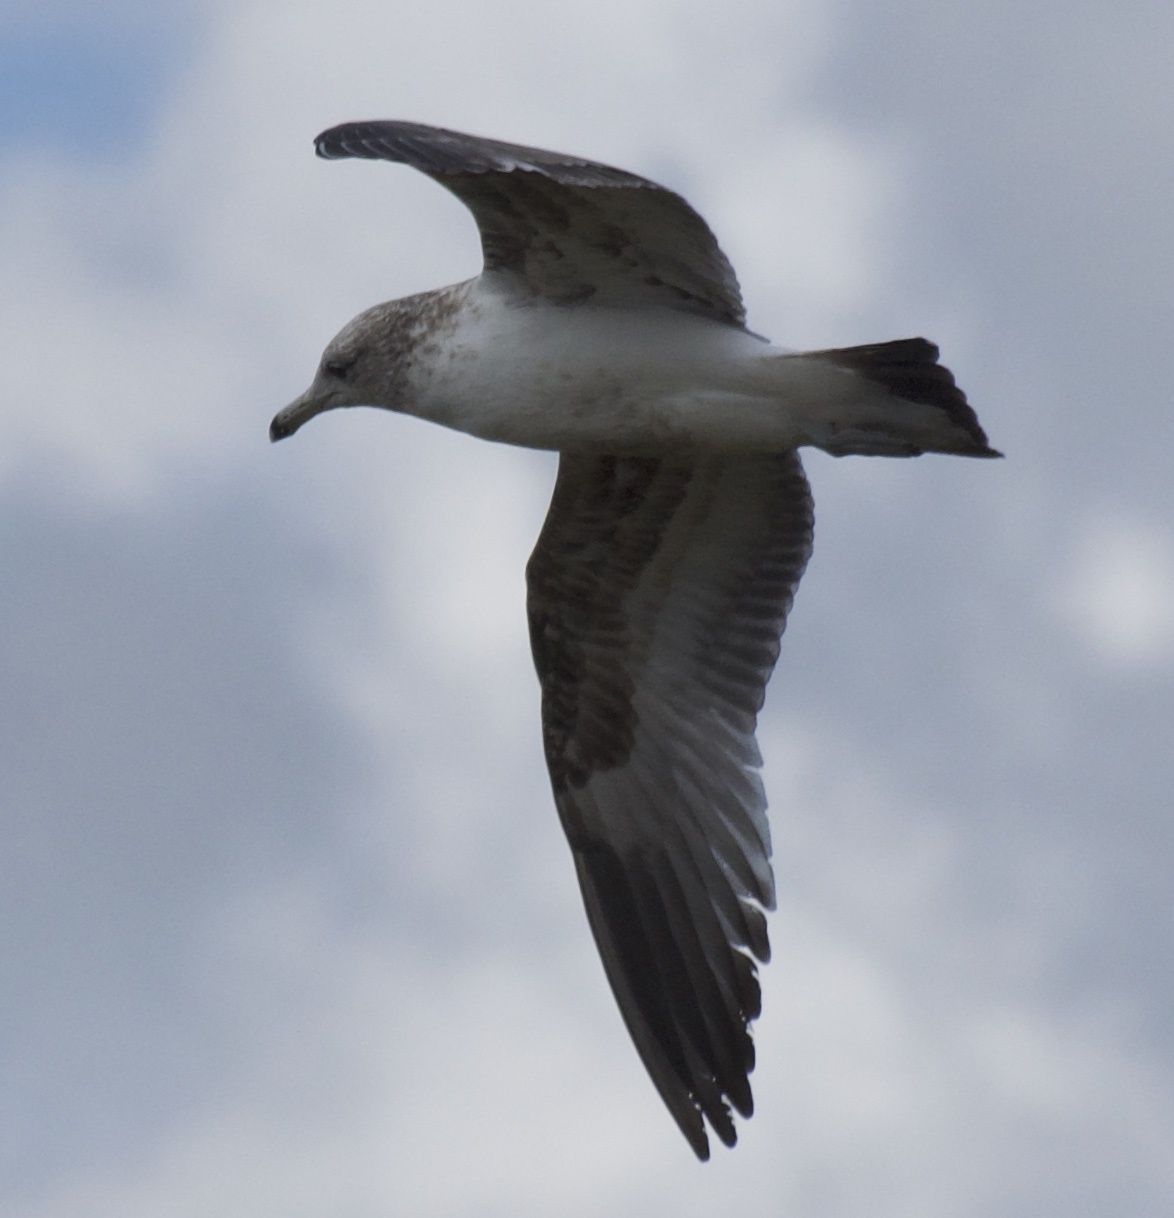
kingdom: Animalia
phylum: Chordata
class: Aves
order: Charadriiformes
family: Laridae
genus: Larus
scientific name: Larus californicus
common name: California gull
